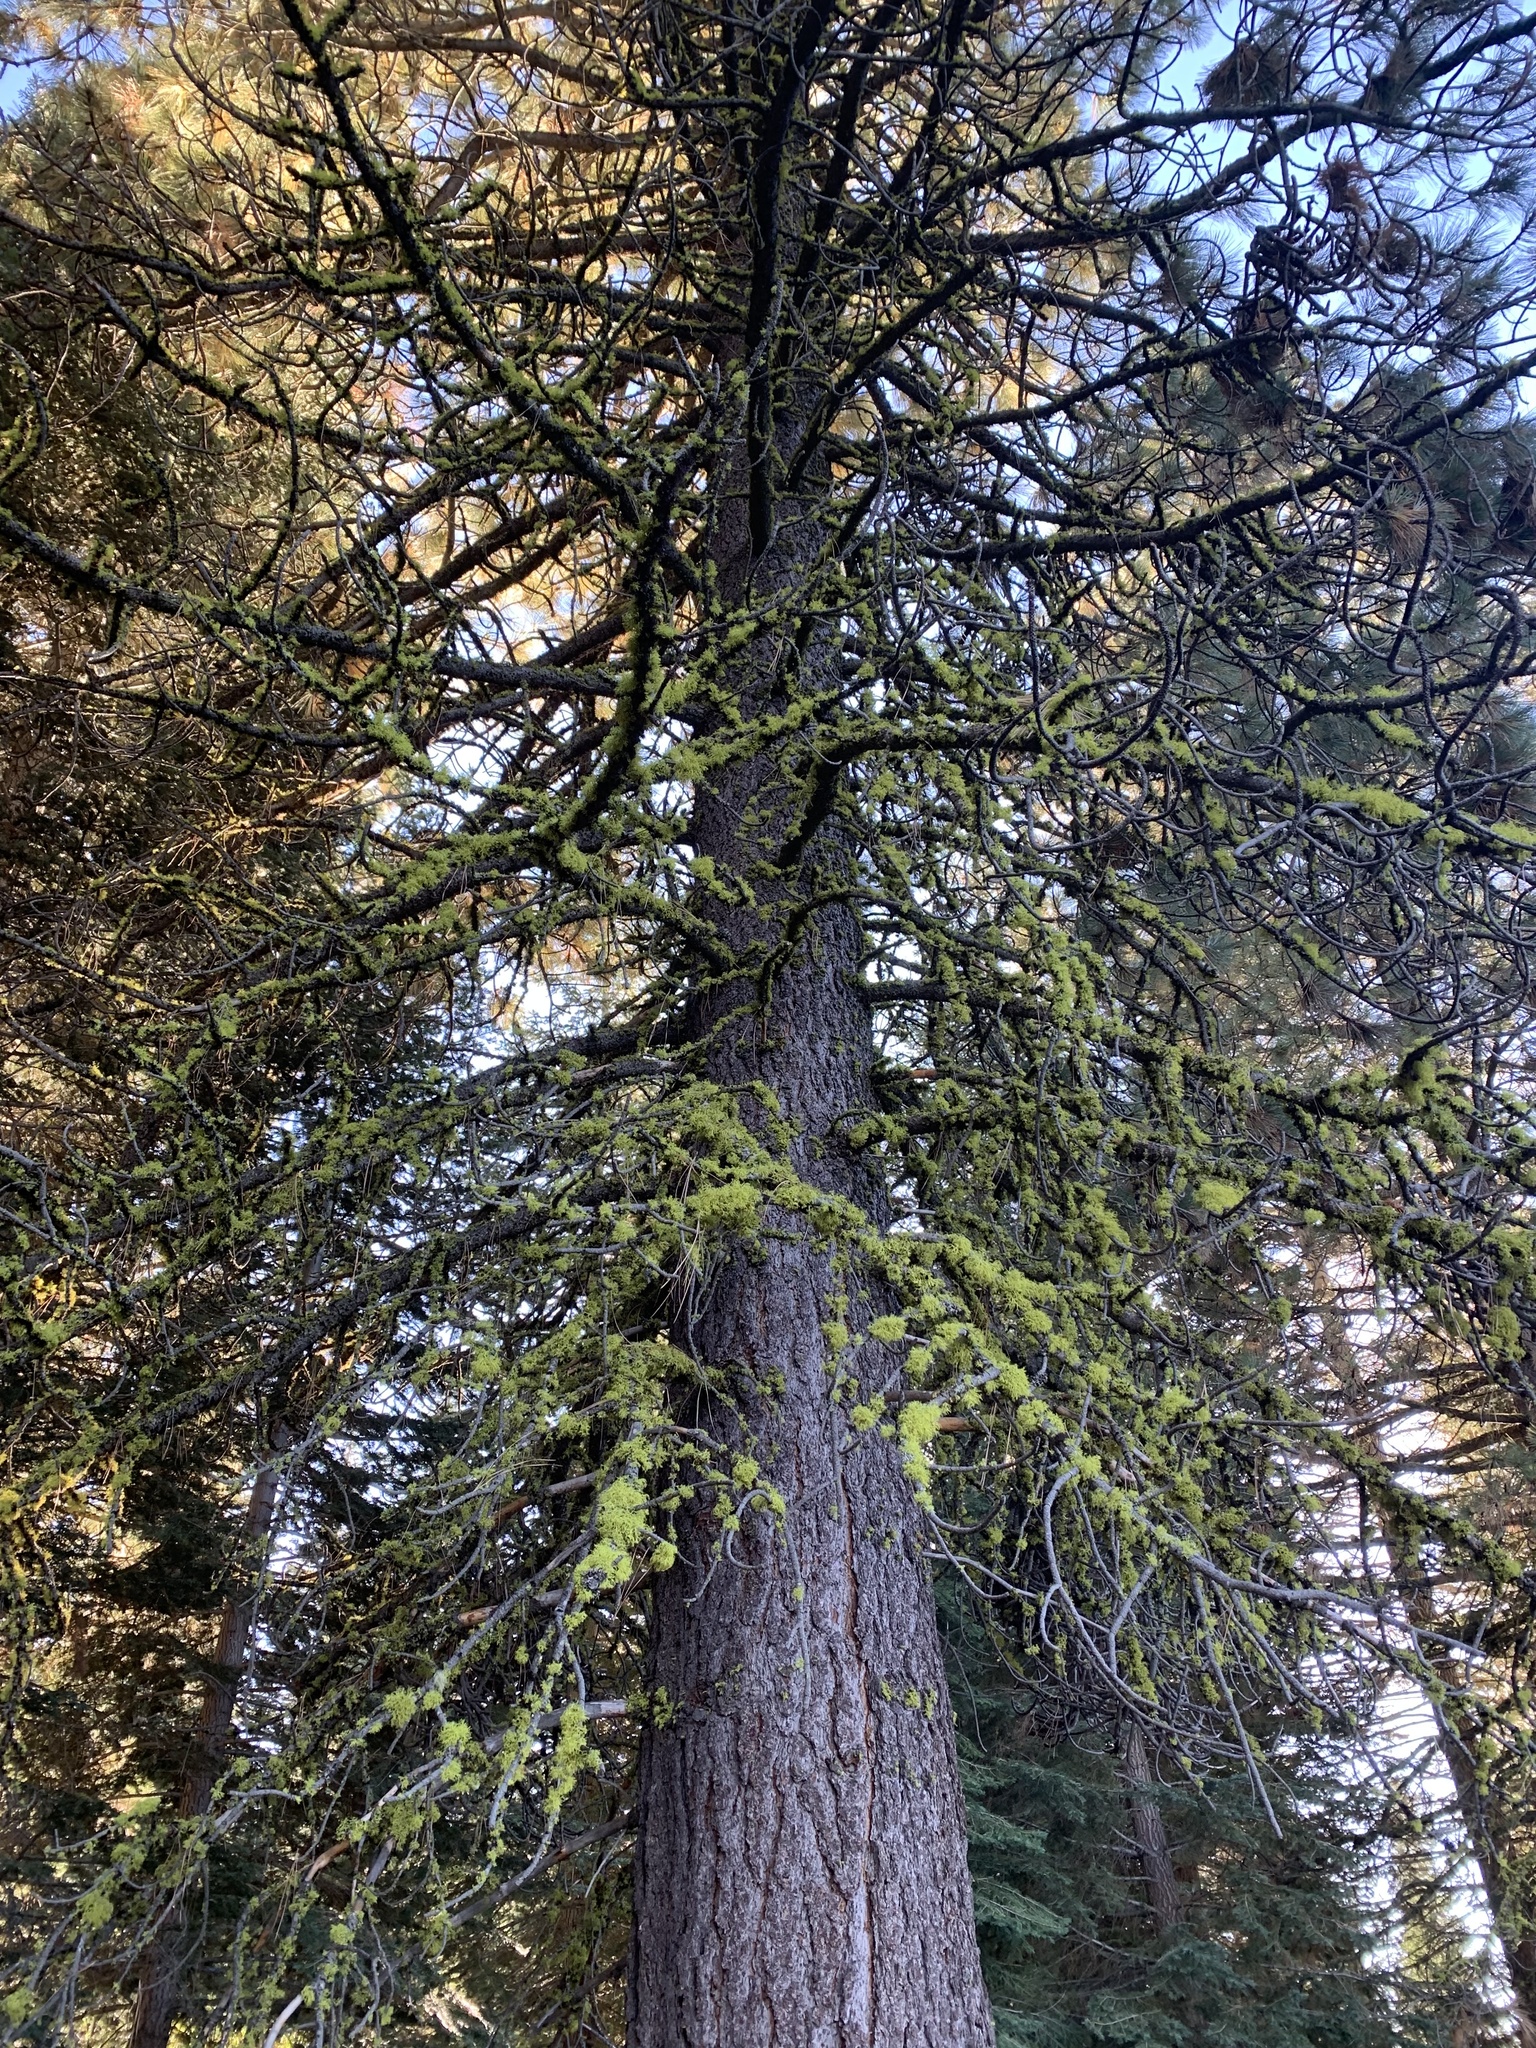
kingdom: Fungi
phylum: Ascomycota
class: Lecanoromycetes
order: Lecanorales
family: Parmeliaceae
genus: Letharia
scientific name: Letharia columbiana
